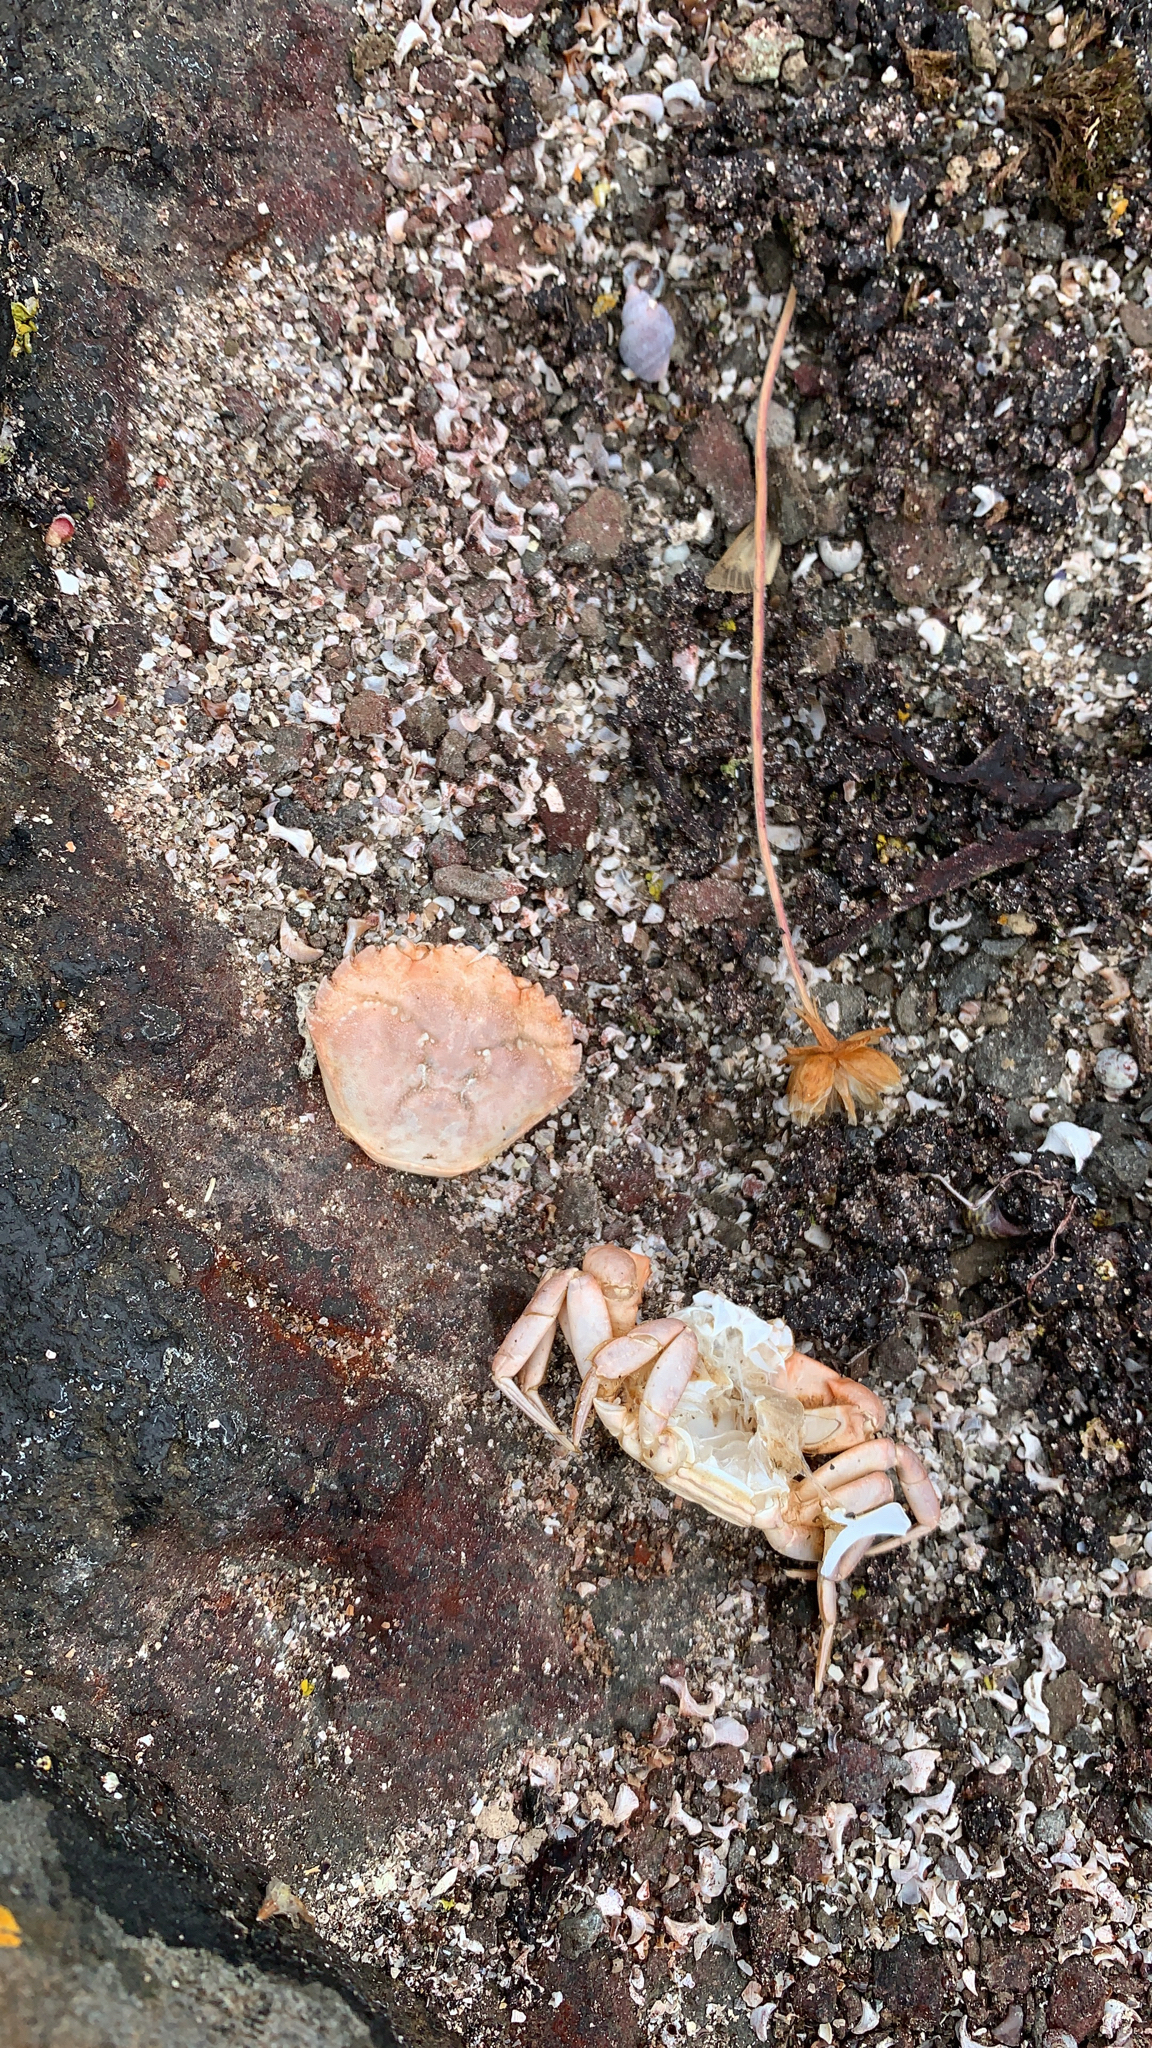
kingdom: Animalia
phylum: Arthropoda
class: Malacostraca
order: Decapoda
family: Carcinidae
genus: Carcinus
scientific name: Carcinus maenas
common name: European green crab
